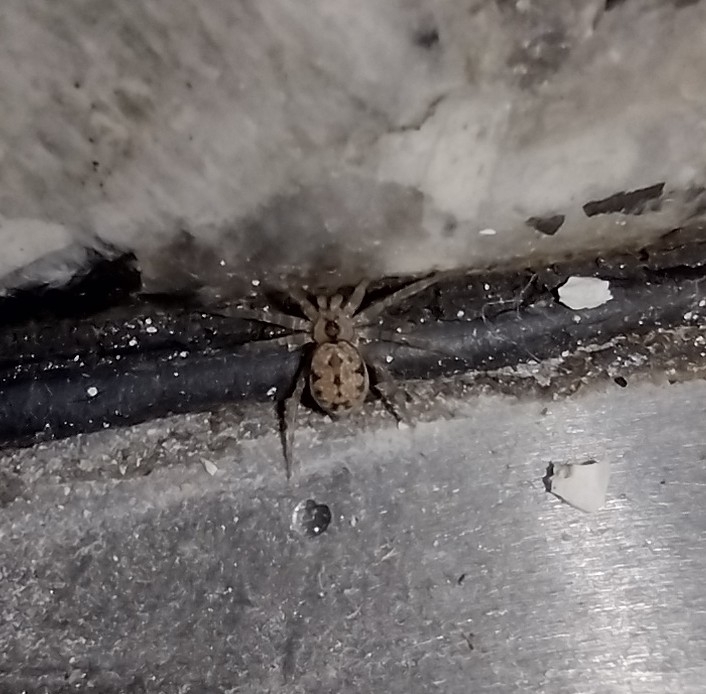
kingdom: Animalia
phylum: Arthropoda
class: Arachnida
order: Araneae
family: Oecobiidae
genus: Oecobius
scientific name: Oecobius navus
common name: Flatmesh weaver
